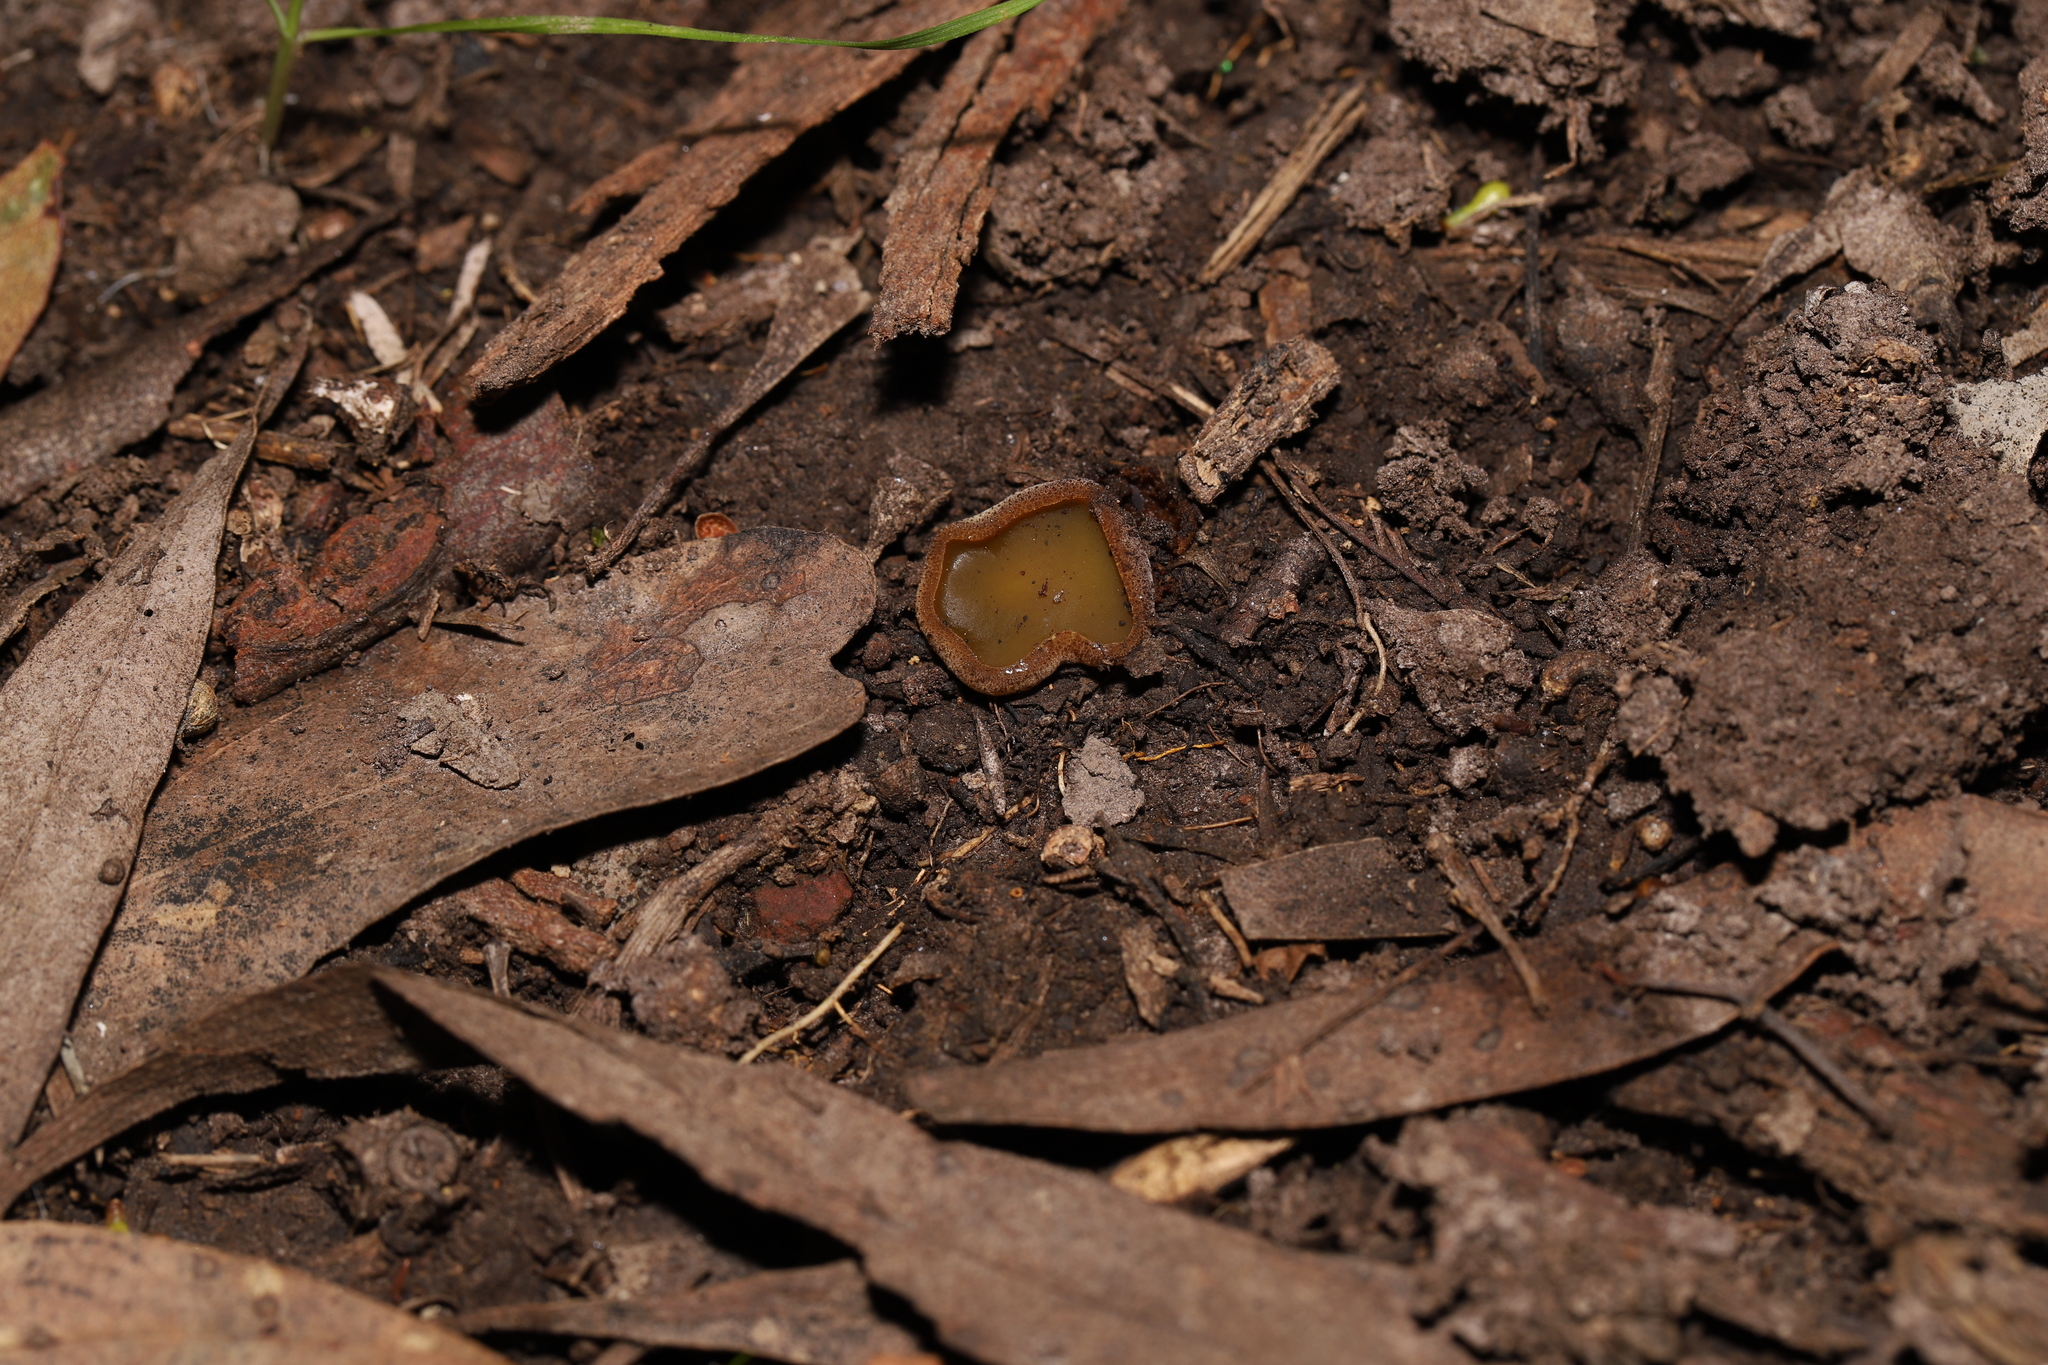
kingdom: Fungi
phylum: Ascomycota
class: Pezizomycetes
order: Pezizales
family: Pyronemataceae
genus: Aleurina
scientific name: Aleurina ferruginea
